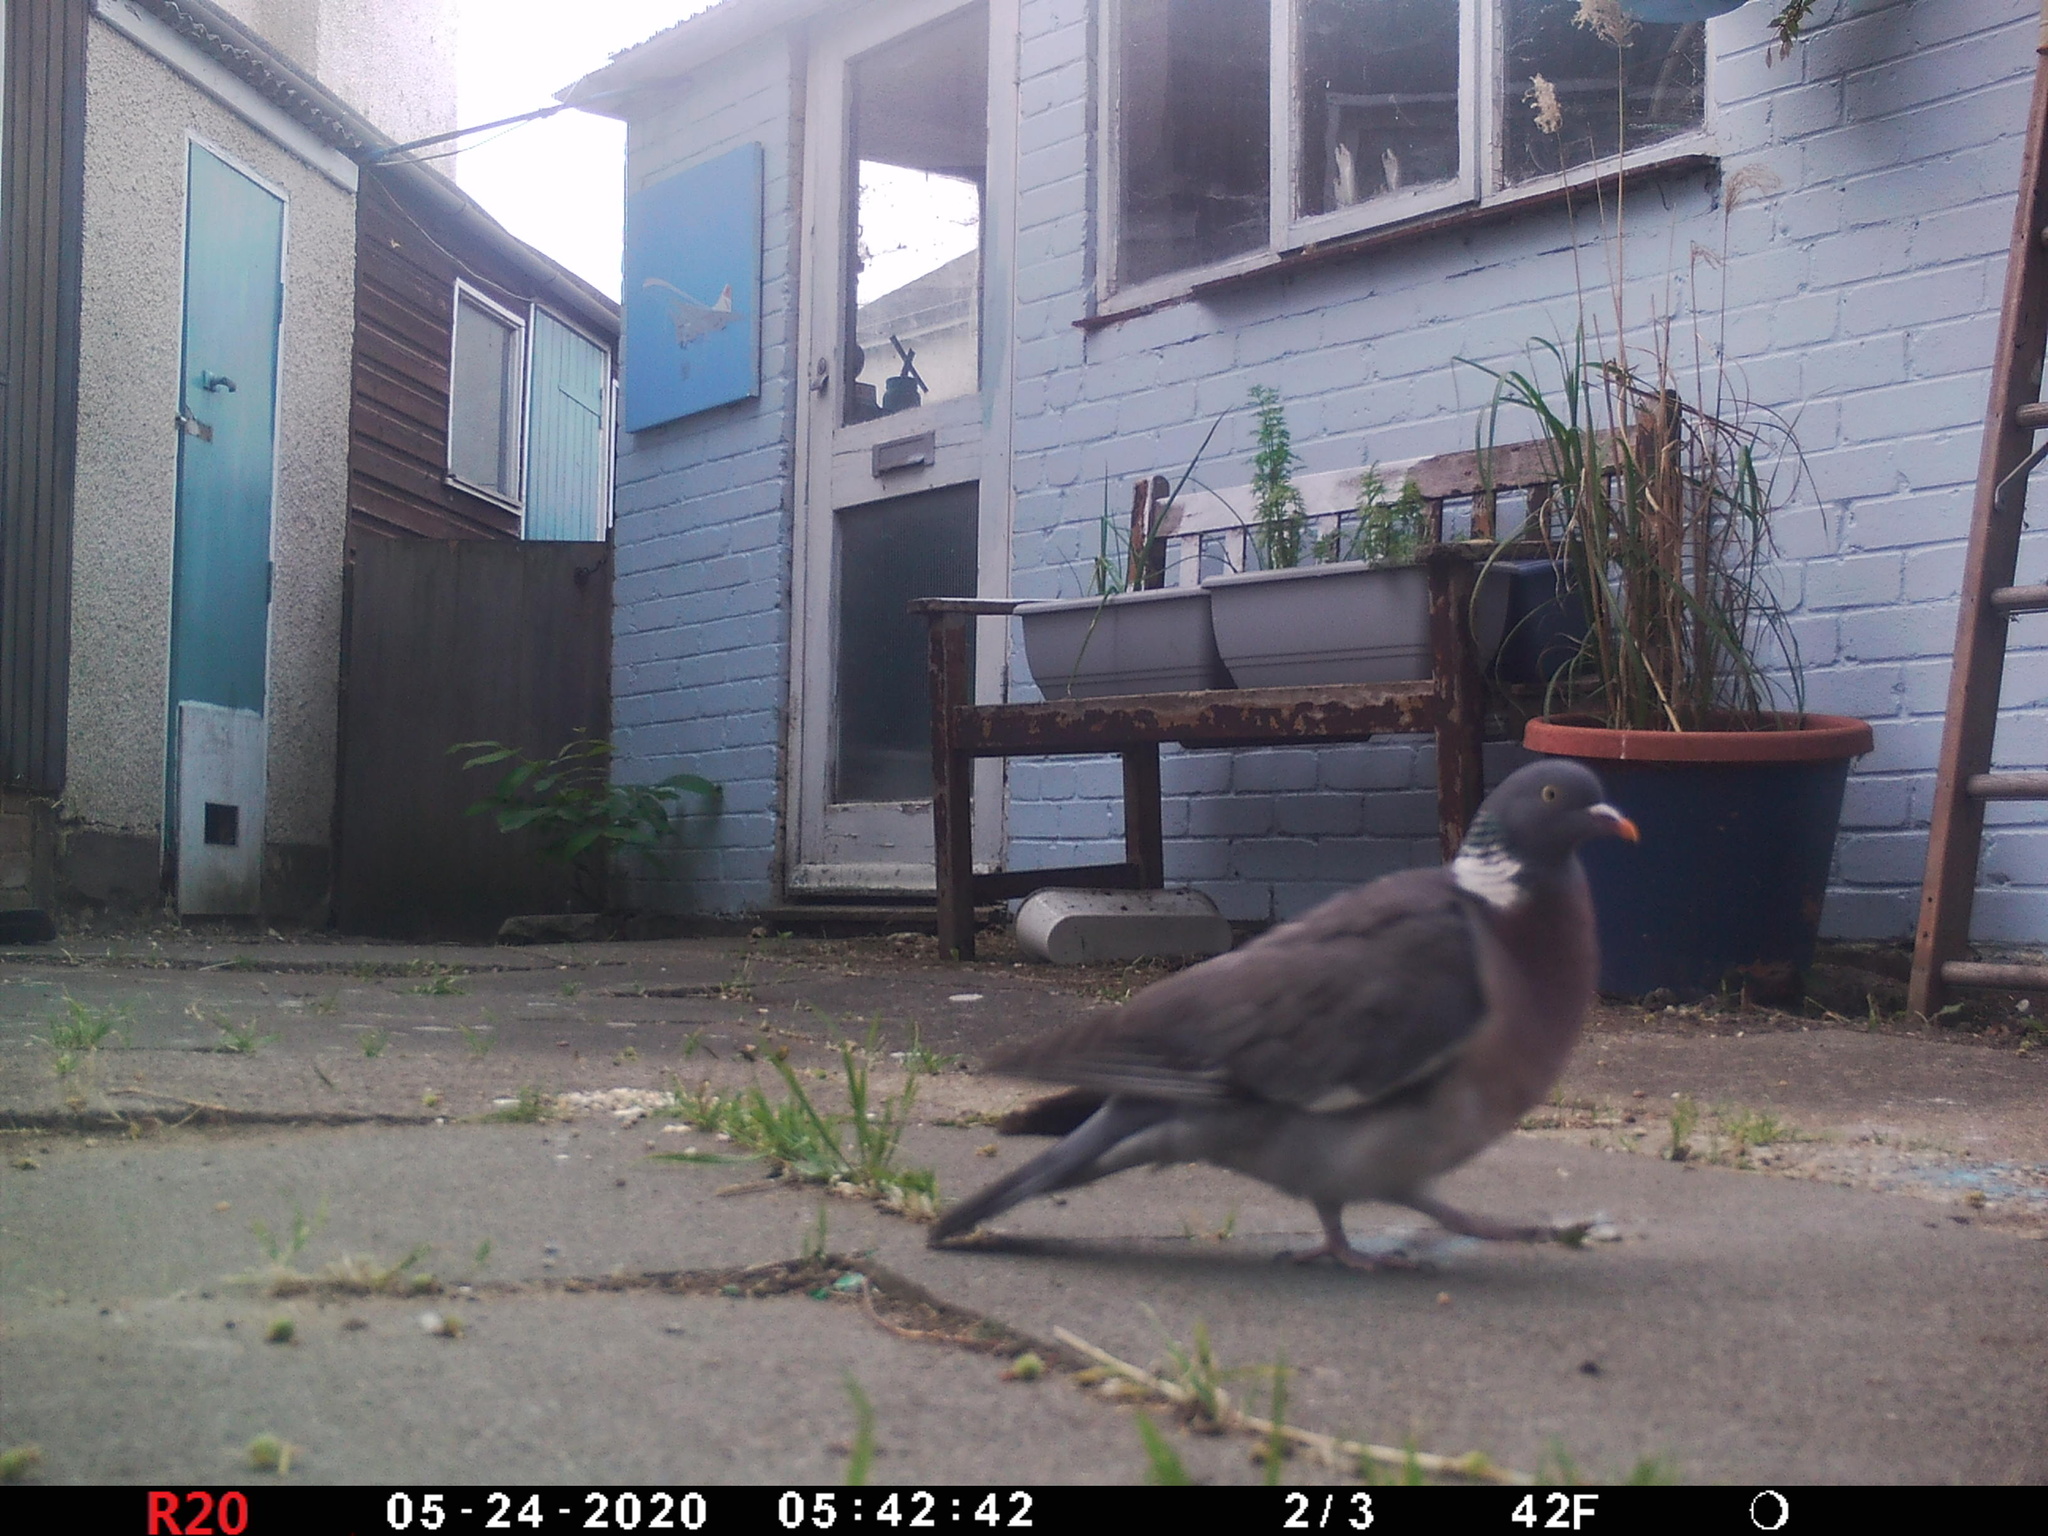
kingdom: Animalia
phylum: Chordata
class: Aves
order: Columbiformes
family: Columbidae
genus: Columba
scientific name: Columba palumbus
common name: Common wood pigeon
